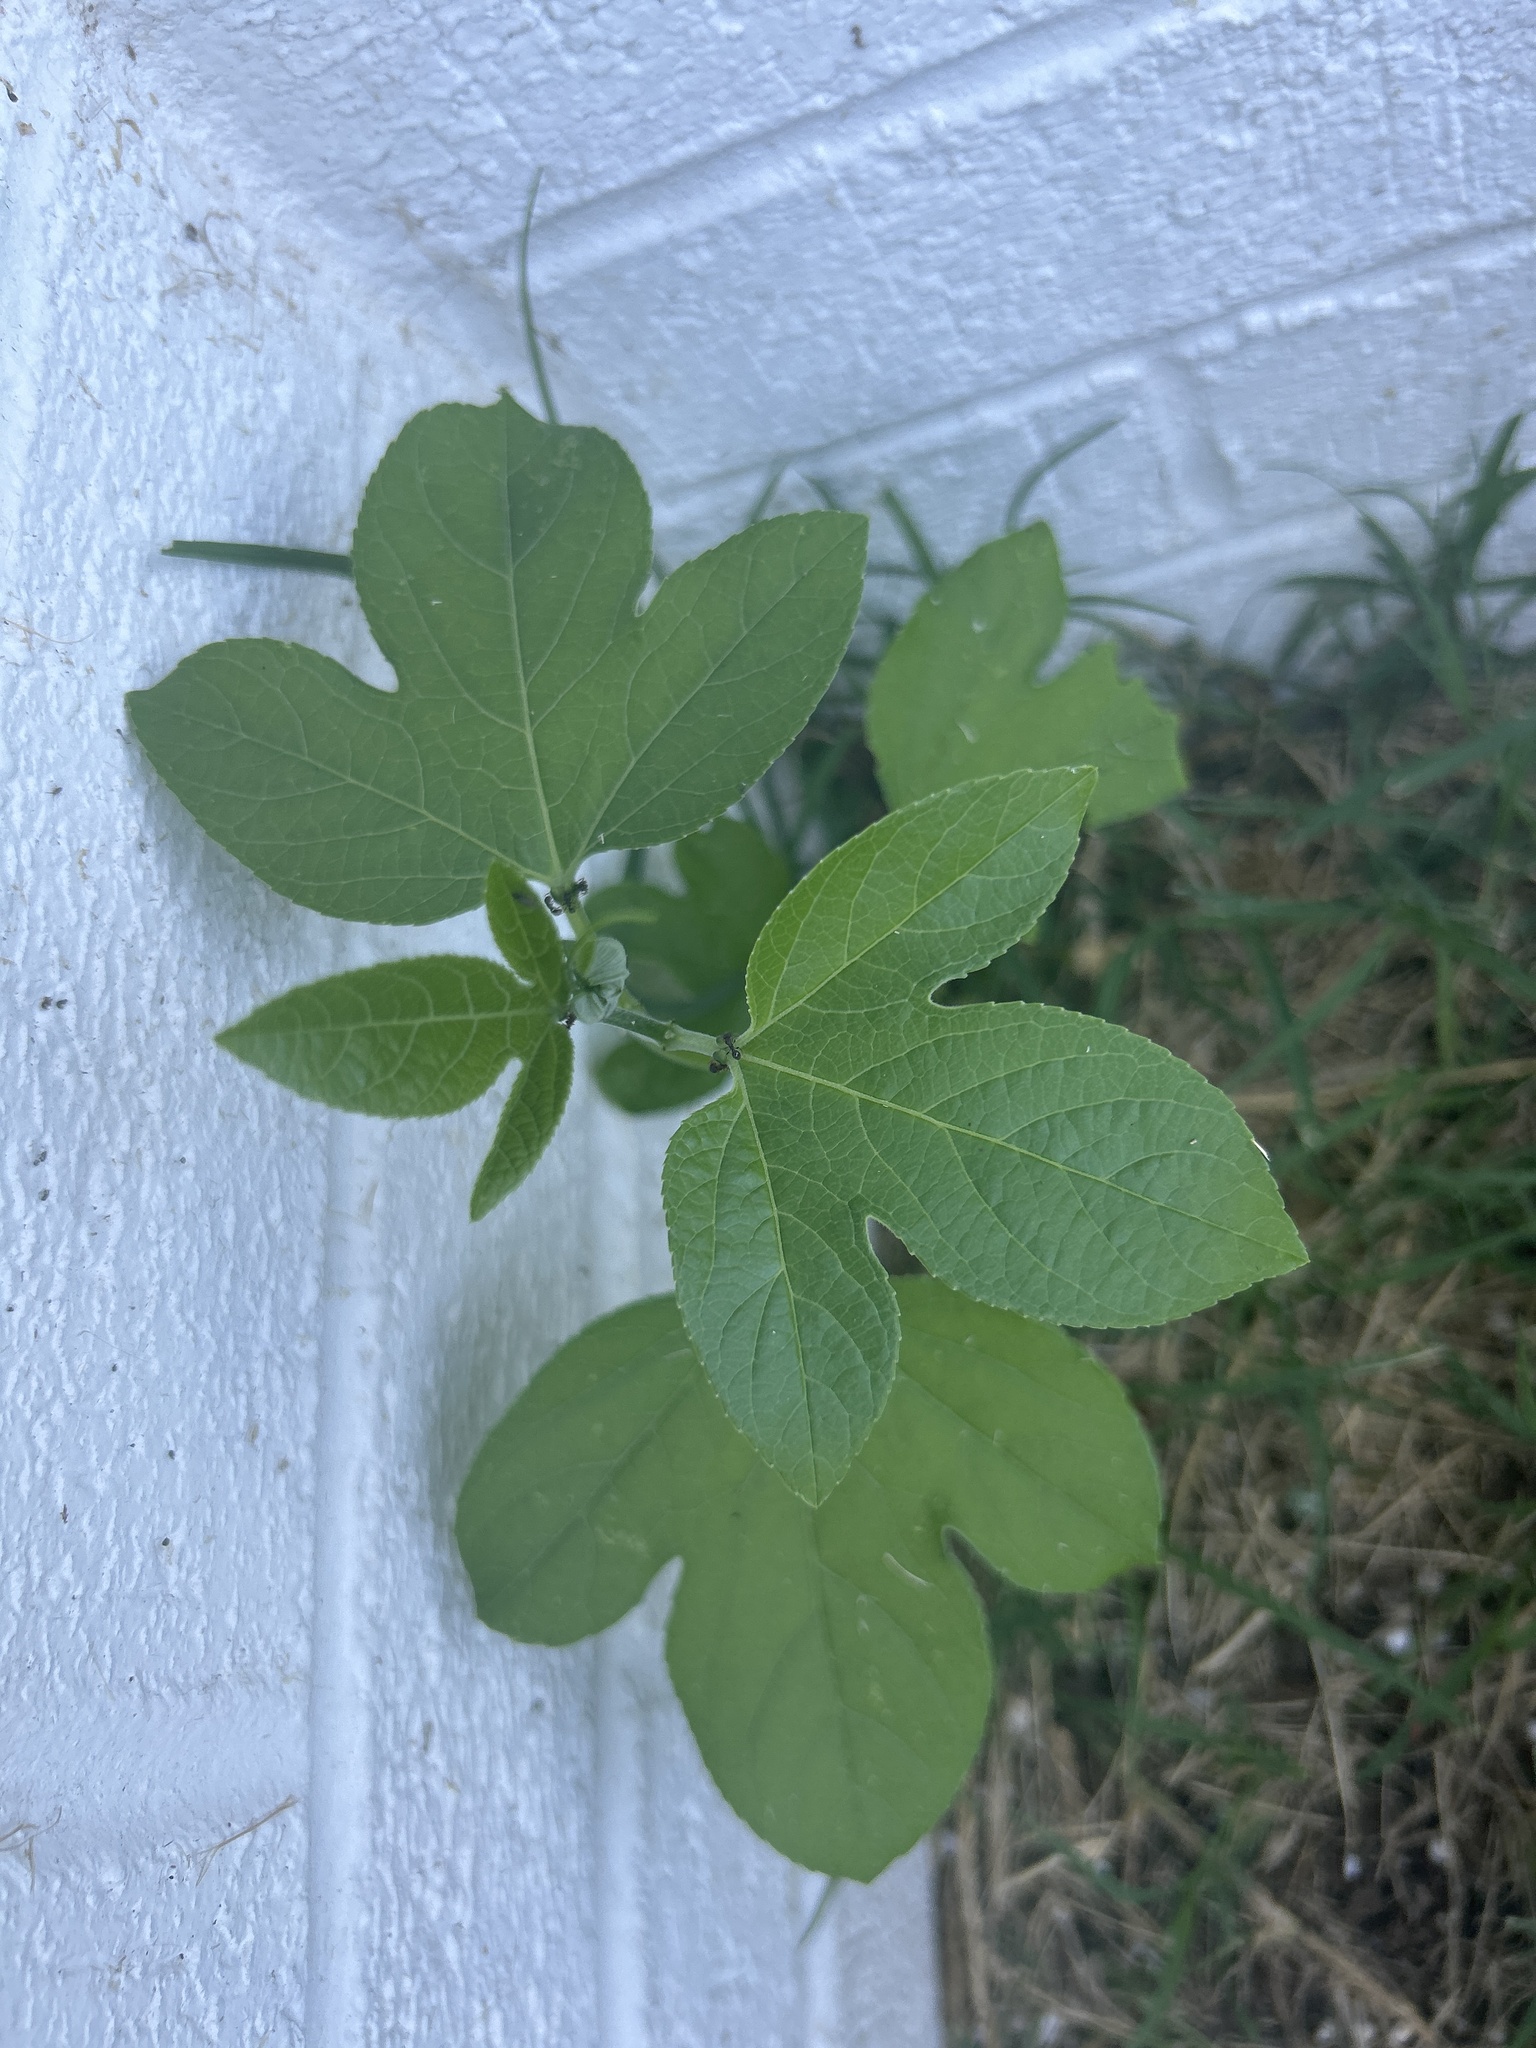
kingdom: Plantae
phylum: Tracheophyta
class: Magnoliopsida
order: Malpighiales
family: Passifloraceae
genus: Passiflora
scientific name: Passiflora incarnata
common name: Apricot-vine
